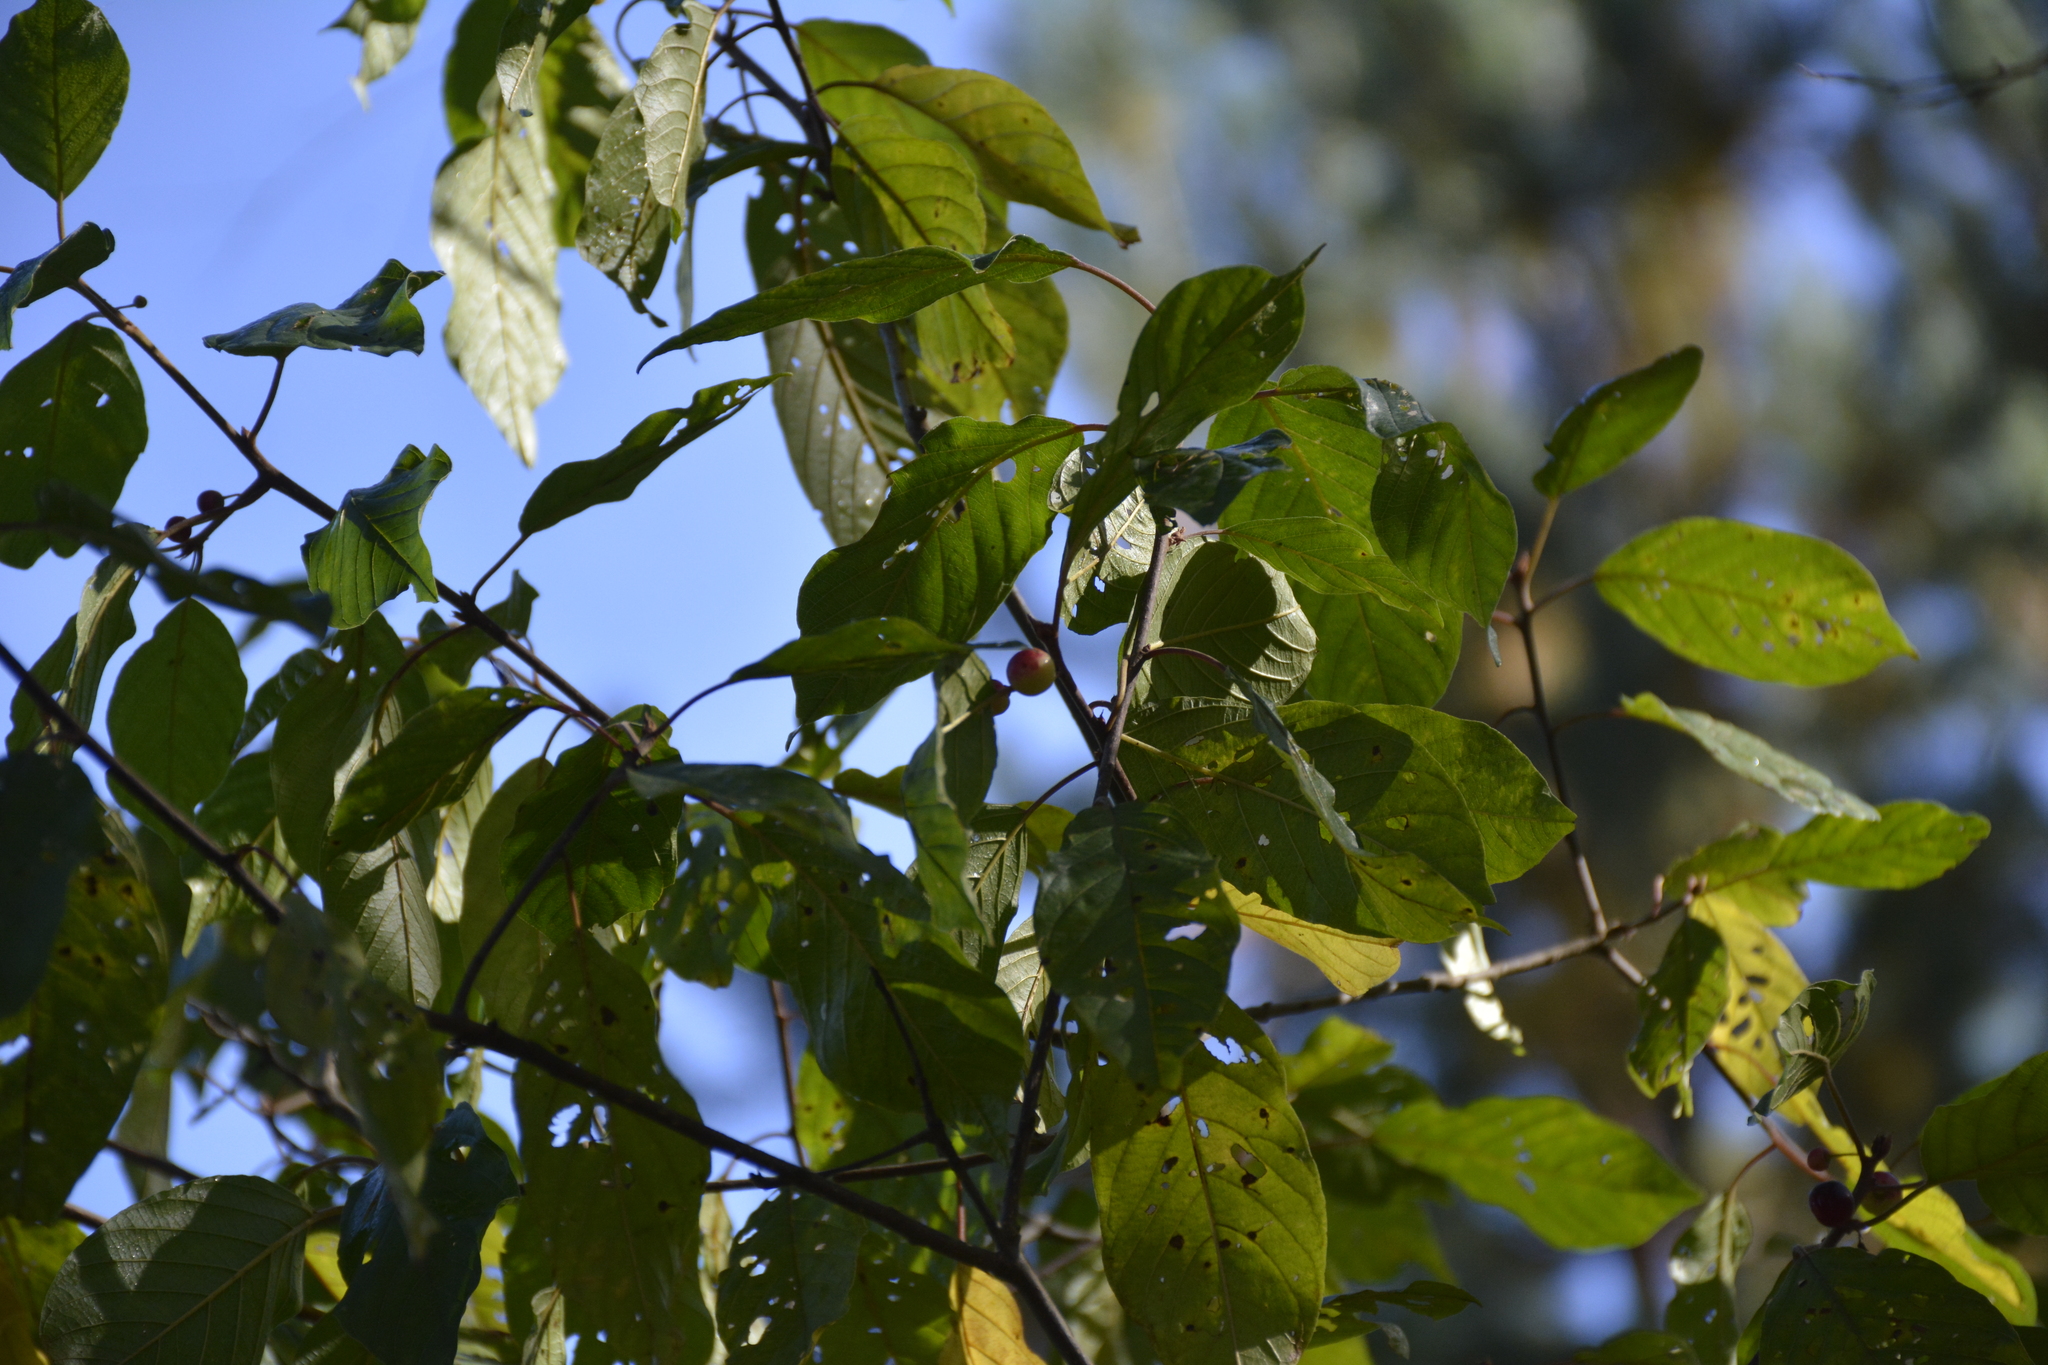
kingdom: Plantae
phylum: Tracheophyta
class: Magnoliopsida
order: Rosales
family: Rhamnaceae
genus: Frangula
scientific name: Frangula alnus
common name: Alder buckthorn
